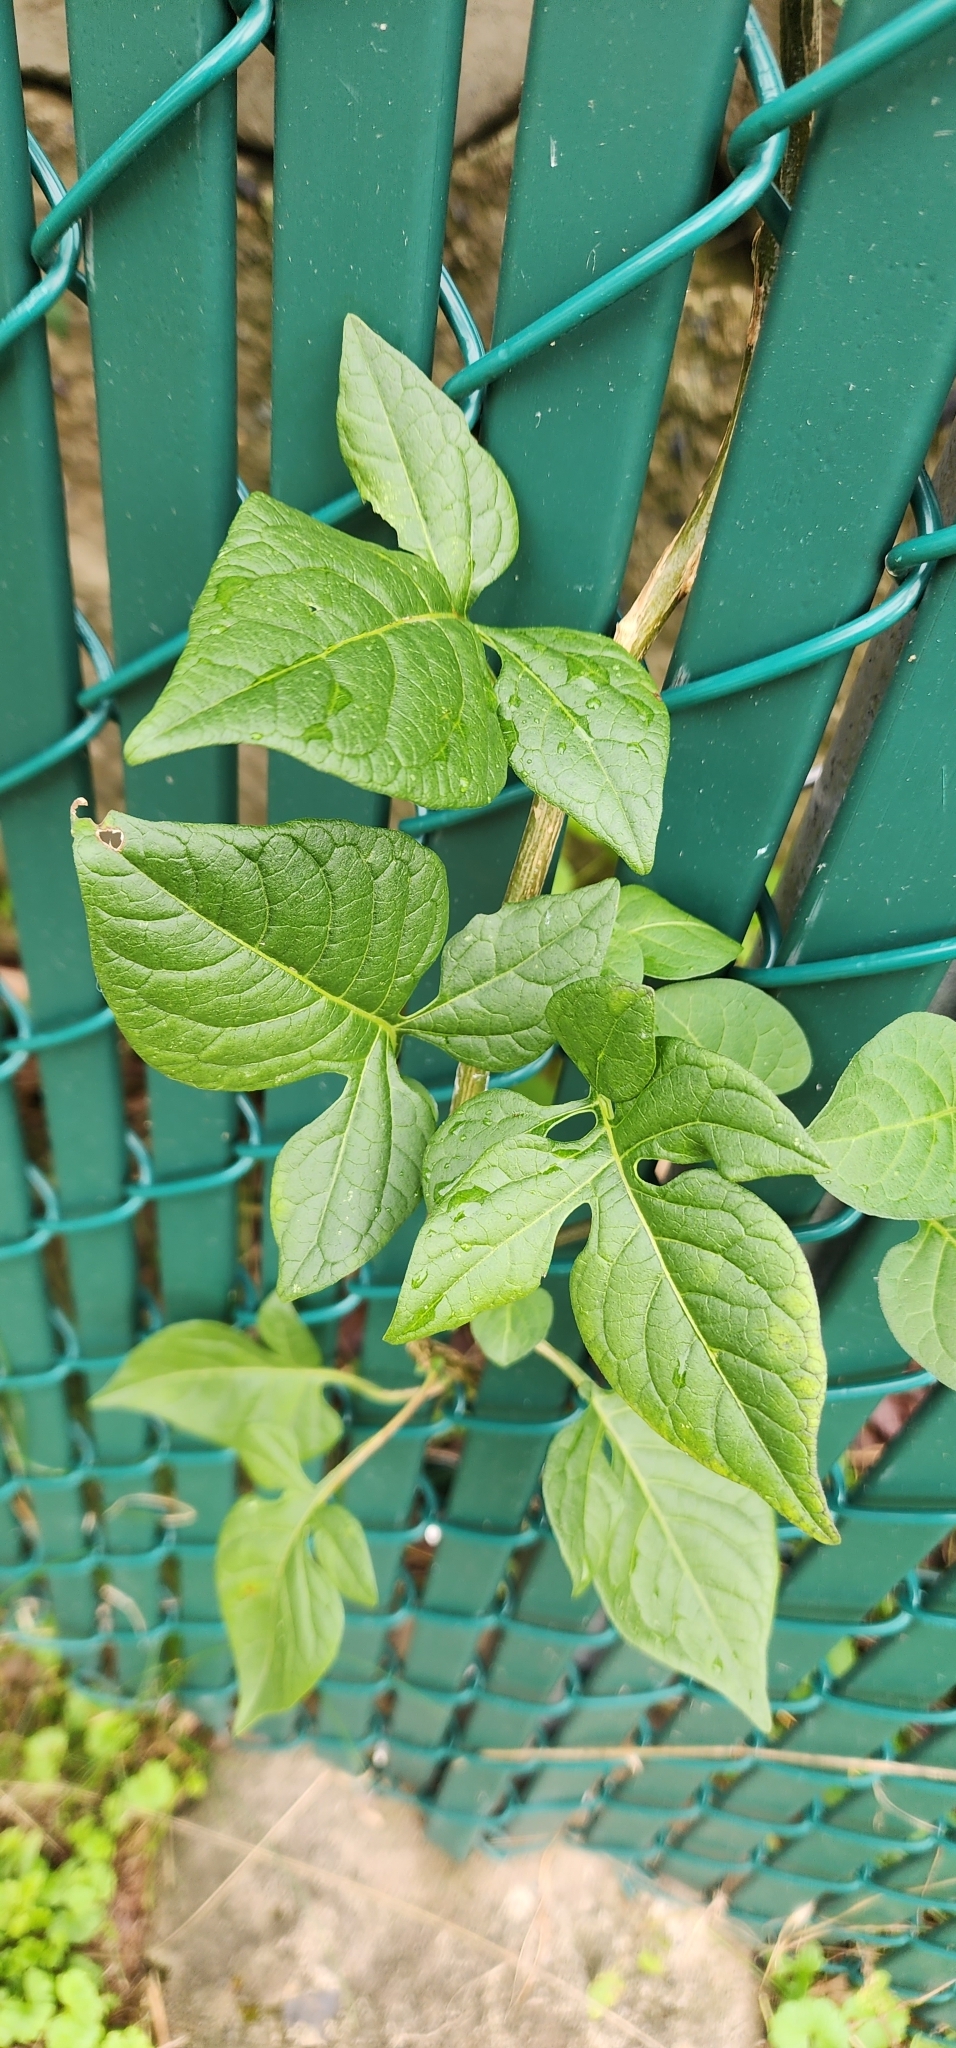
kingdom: Plantae
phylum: Tracheophyta
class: Magnoliopsida
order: Solanales
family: Solanaceae
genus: Solanum
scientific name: Solanum dulcamara
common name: Climbing nightshade
